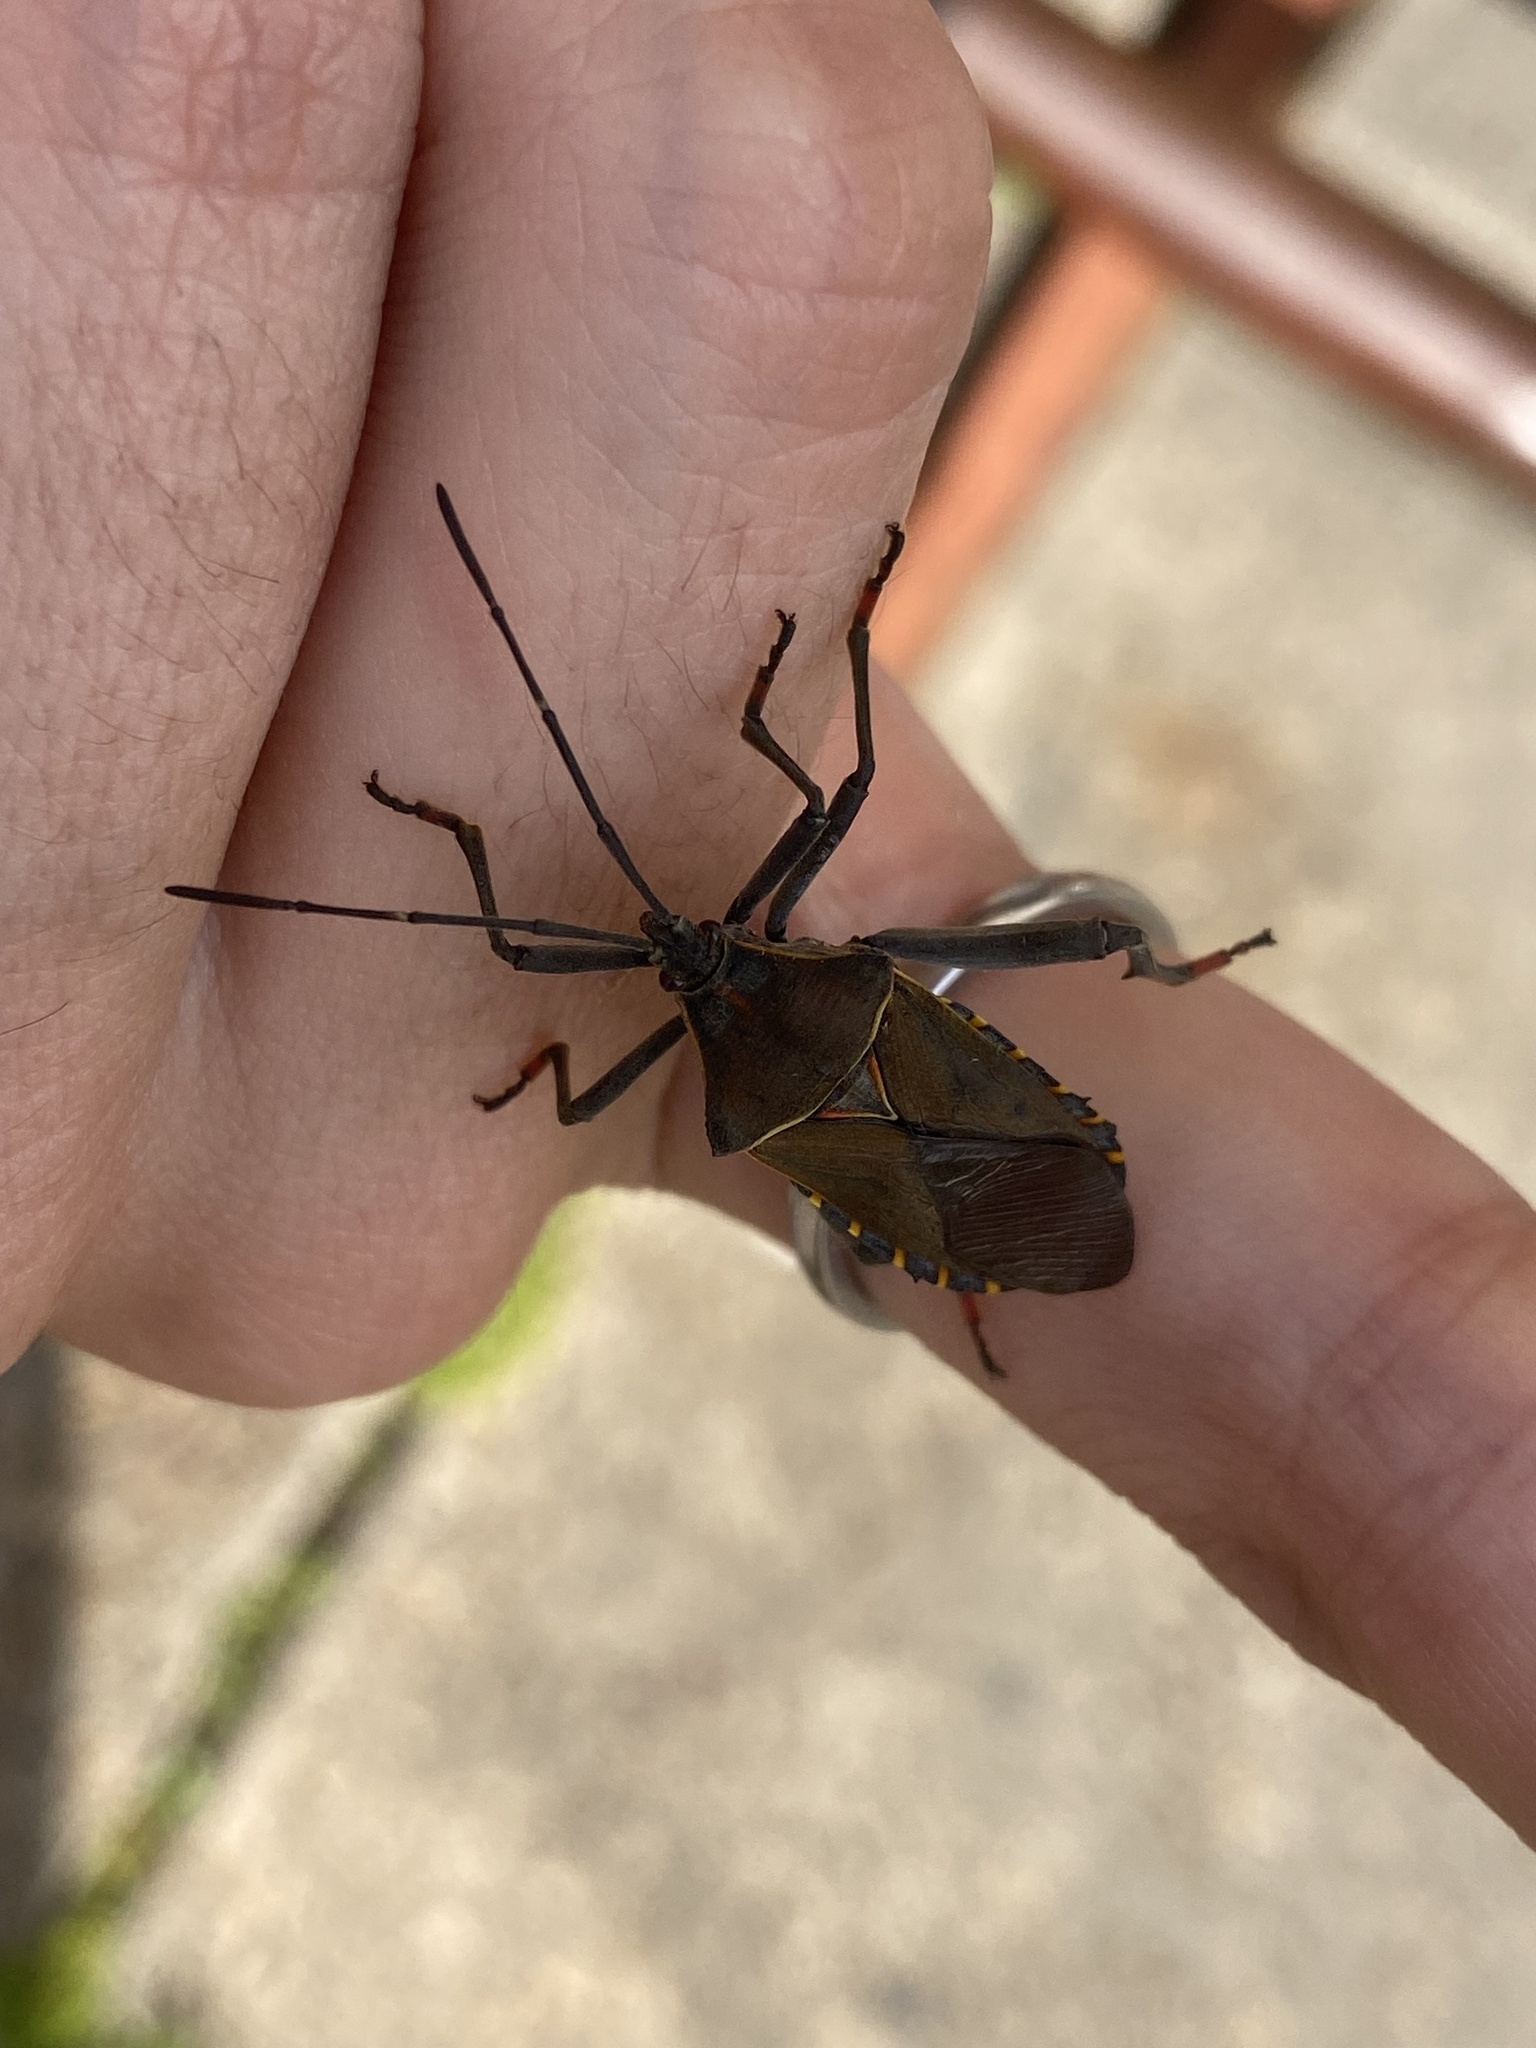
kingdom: Animalia
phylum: Arthropoda
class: Insecta
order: Hemiptera
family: Coreidae
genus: Pachylis
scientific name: Pachylis argentinus
